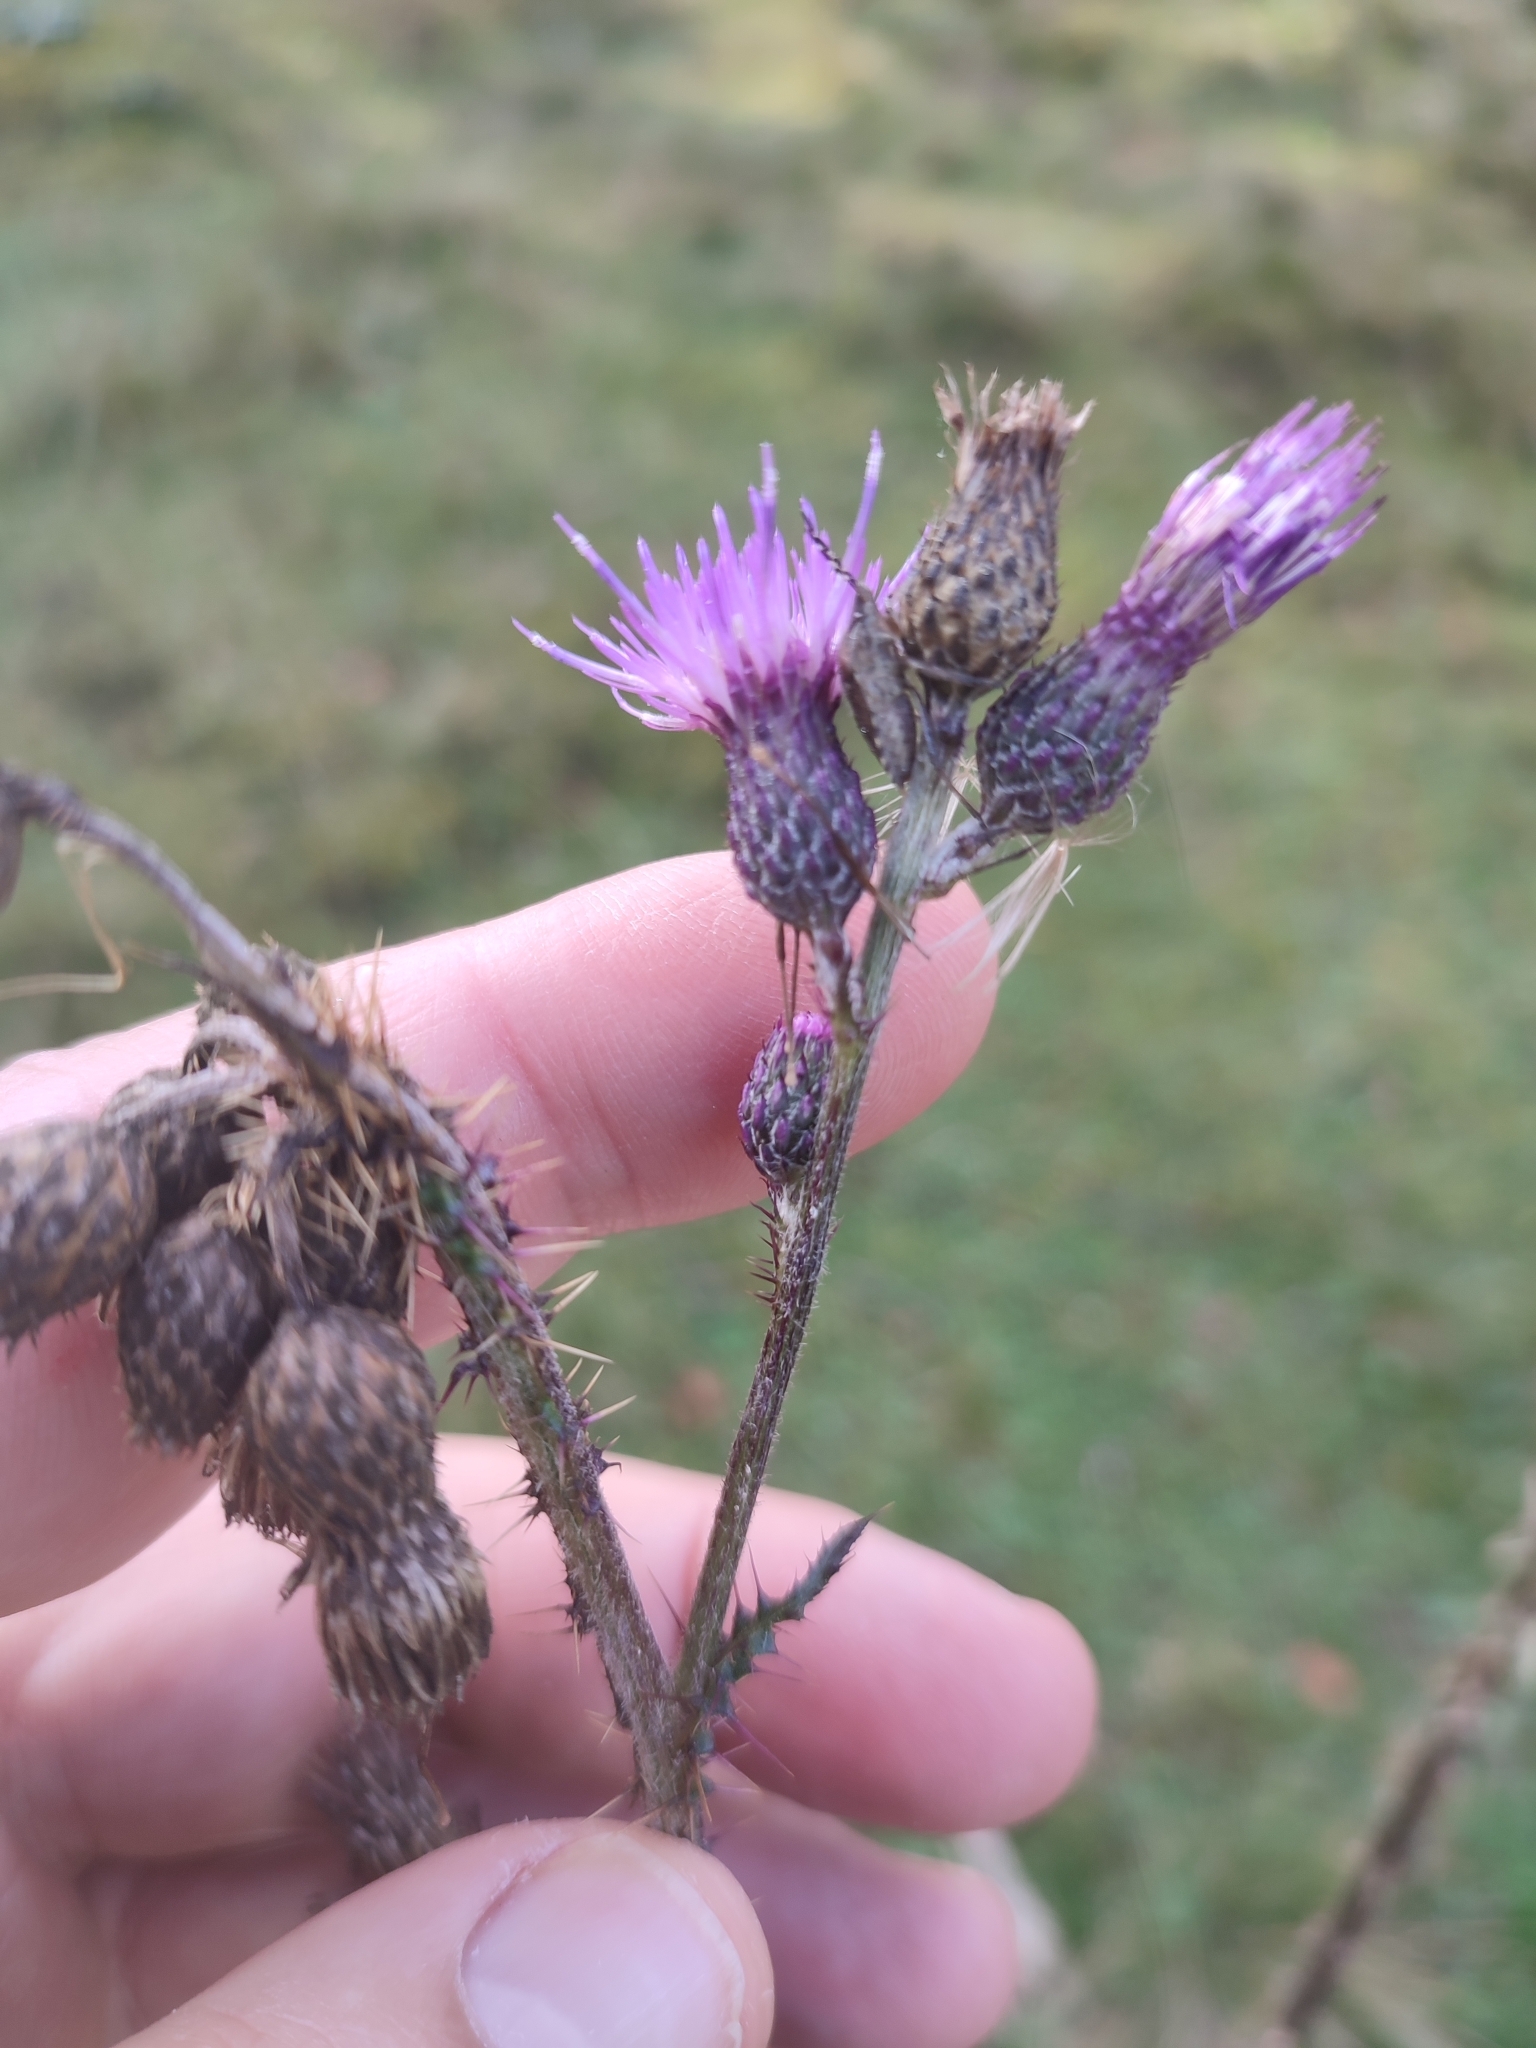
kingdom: Plantae
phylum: Tracheophyta
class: Magnoliopsida
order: Asterales
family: Asteraceae
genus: Cirsium
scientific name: Cirsium palustre
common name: Marsh thistle
